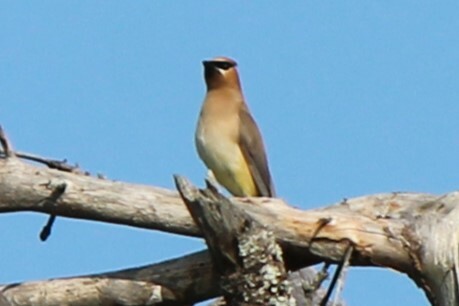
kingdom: Animalia
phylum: Chordata
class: Aves
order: Passeriformes
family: Bombycillidae
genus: Bombycilla
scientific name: Bombycilla cedrorum
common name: Cedar waxwing
